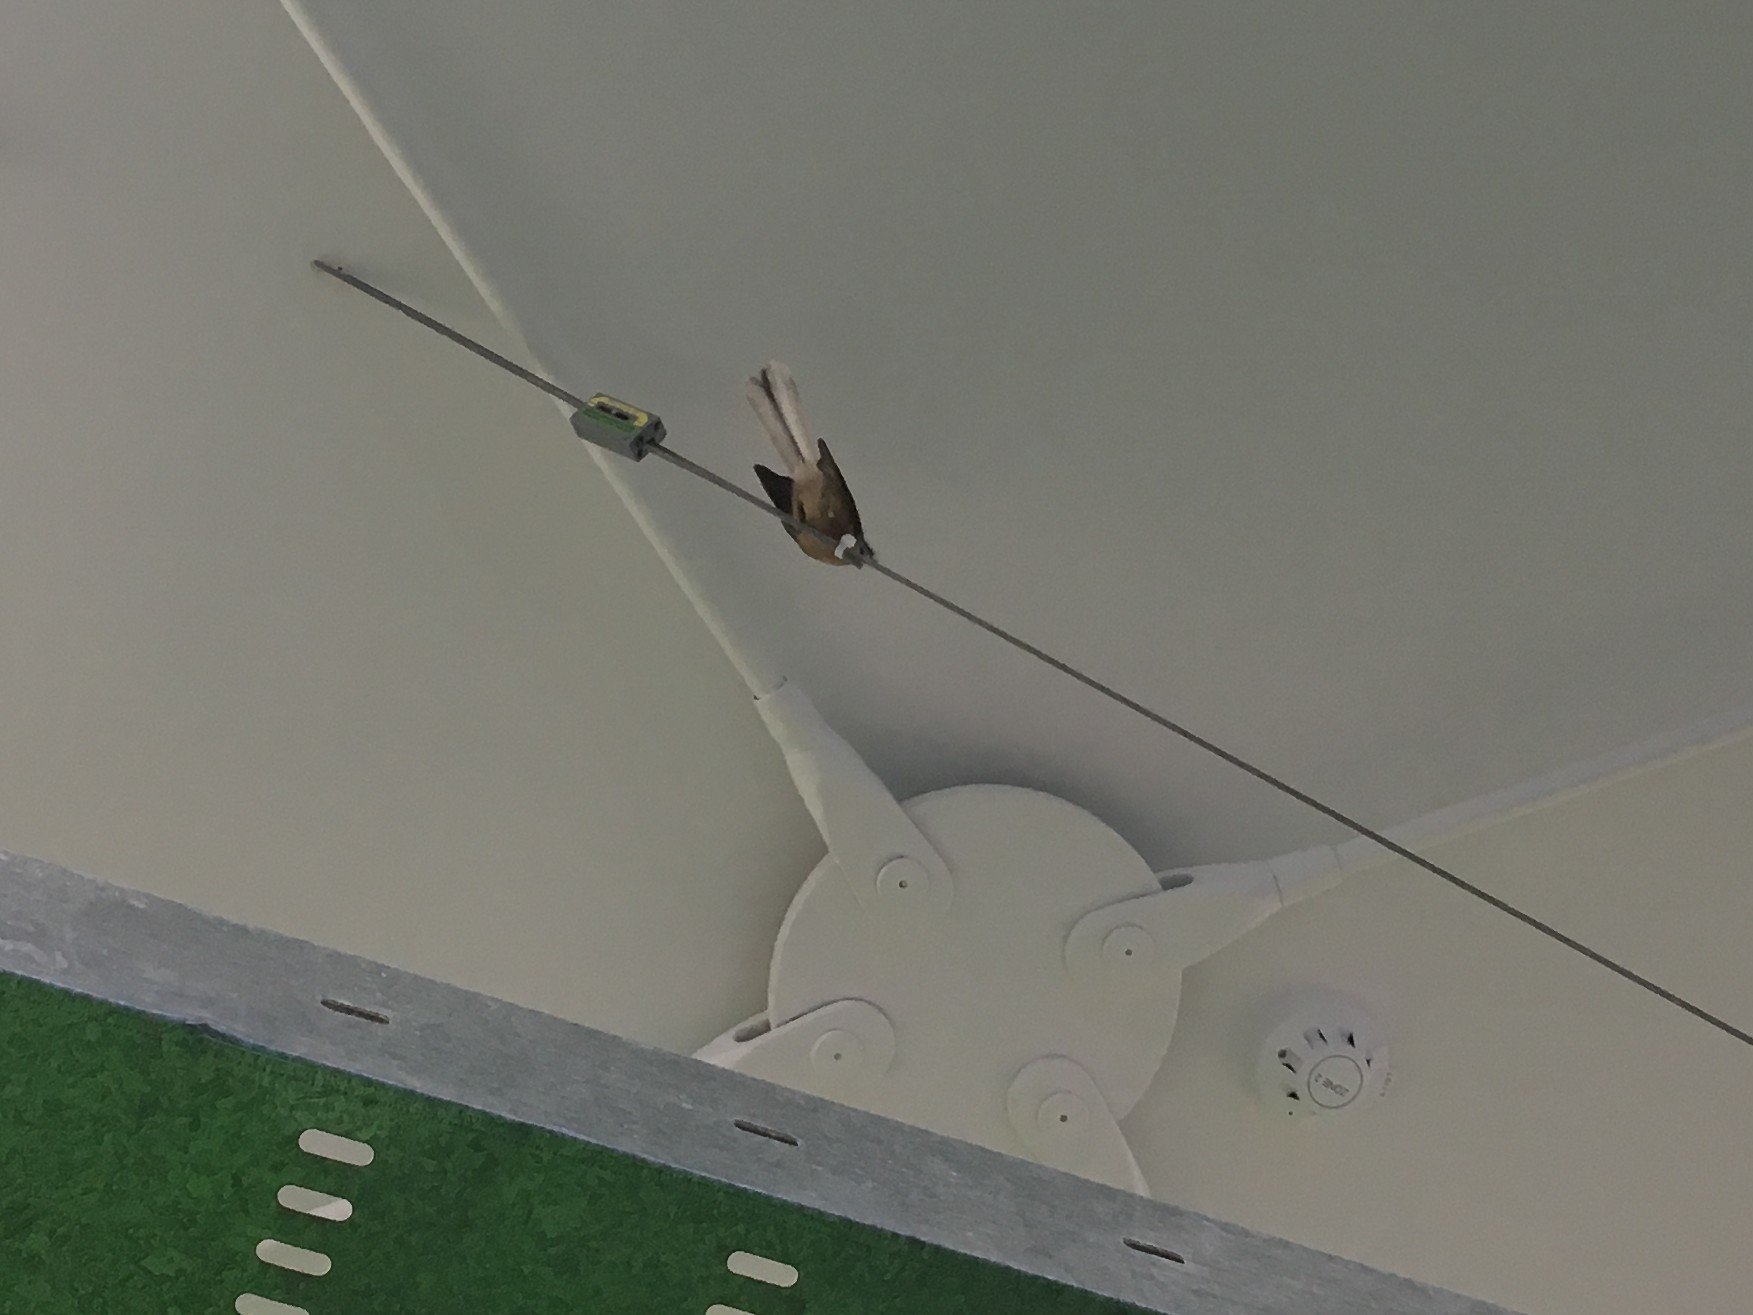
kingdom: Animalia
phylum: Chordata
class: Aves
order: Passeriformes
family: Rhipiduridae
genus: Rhipidura
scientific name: Rhipidura fuliginosa
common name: New zealand fantail
